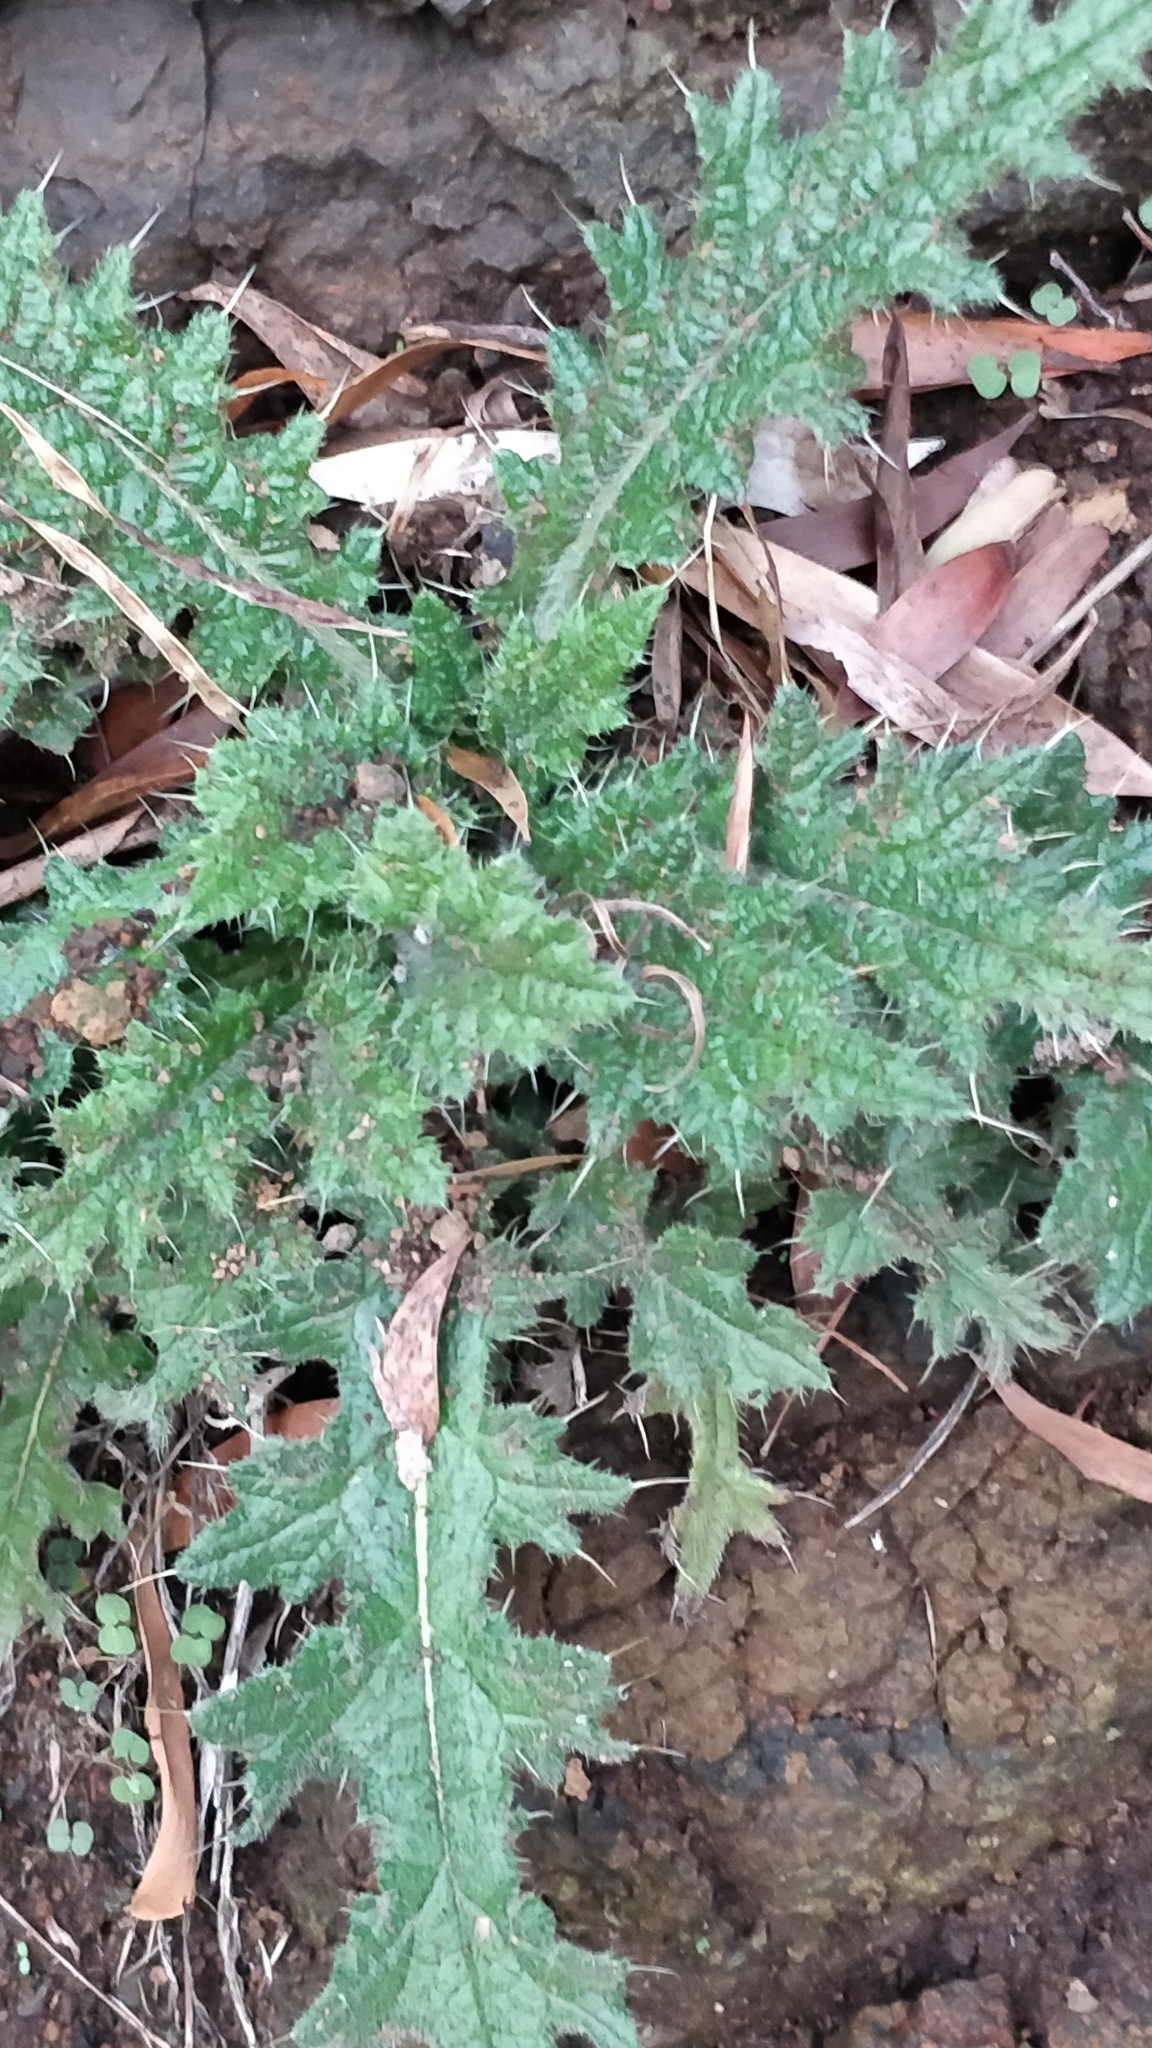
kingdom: Plantae
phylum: Tracheophyta
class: Magnoliopsida
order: Asterales
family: Asteraceae
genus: Cirsium
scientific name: Cirsium vulgare
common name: Bull thistle
